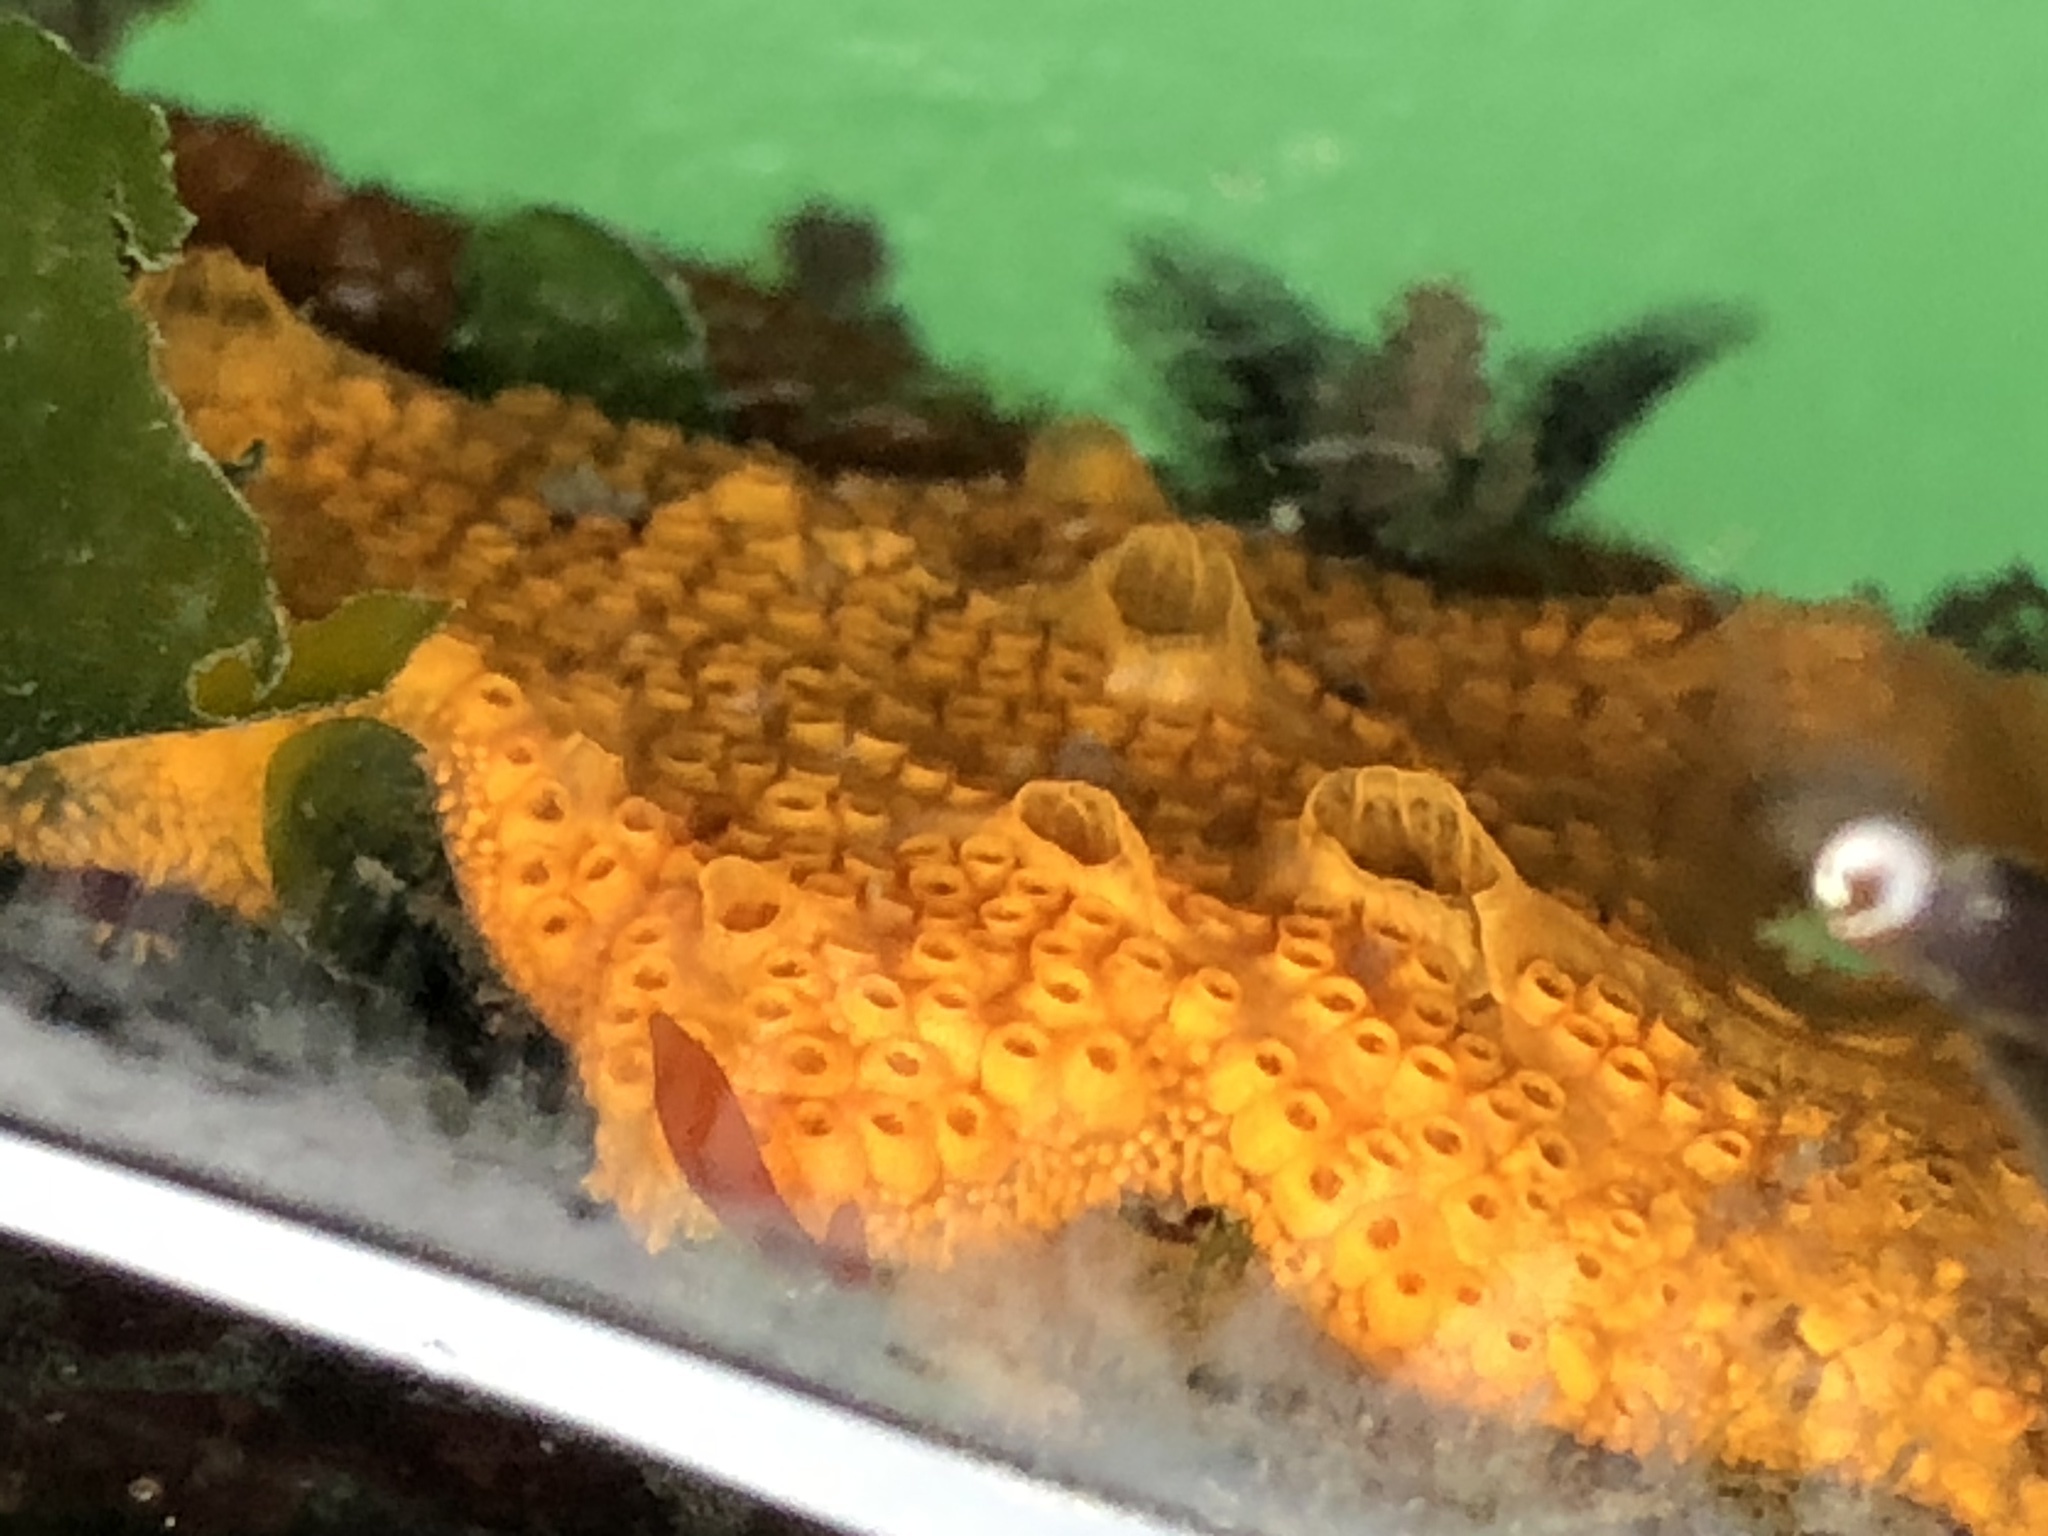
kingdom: Animalia
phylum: Chordata
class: Ascidiacea
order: Stolidobranchia
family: Styelidae
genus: Botrylloides
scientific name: Botrylloides violaceus
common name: Colonial sea squirt
